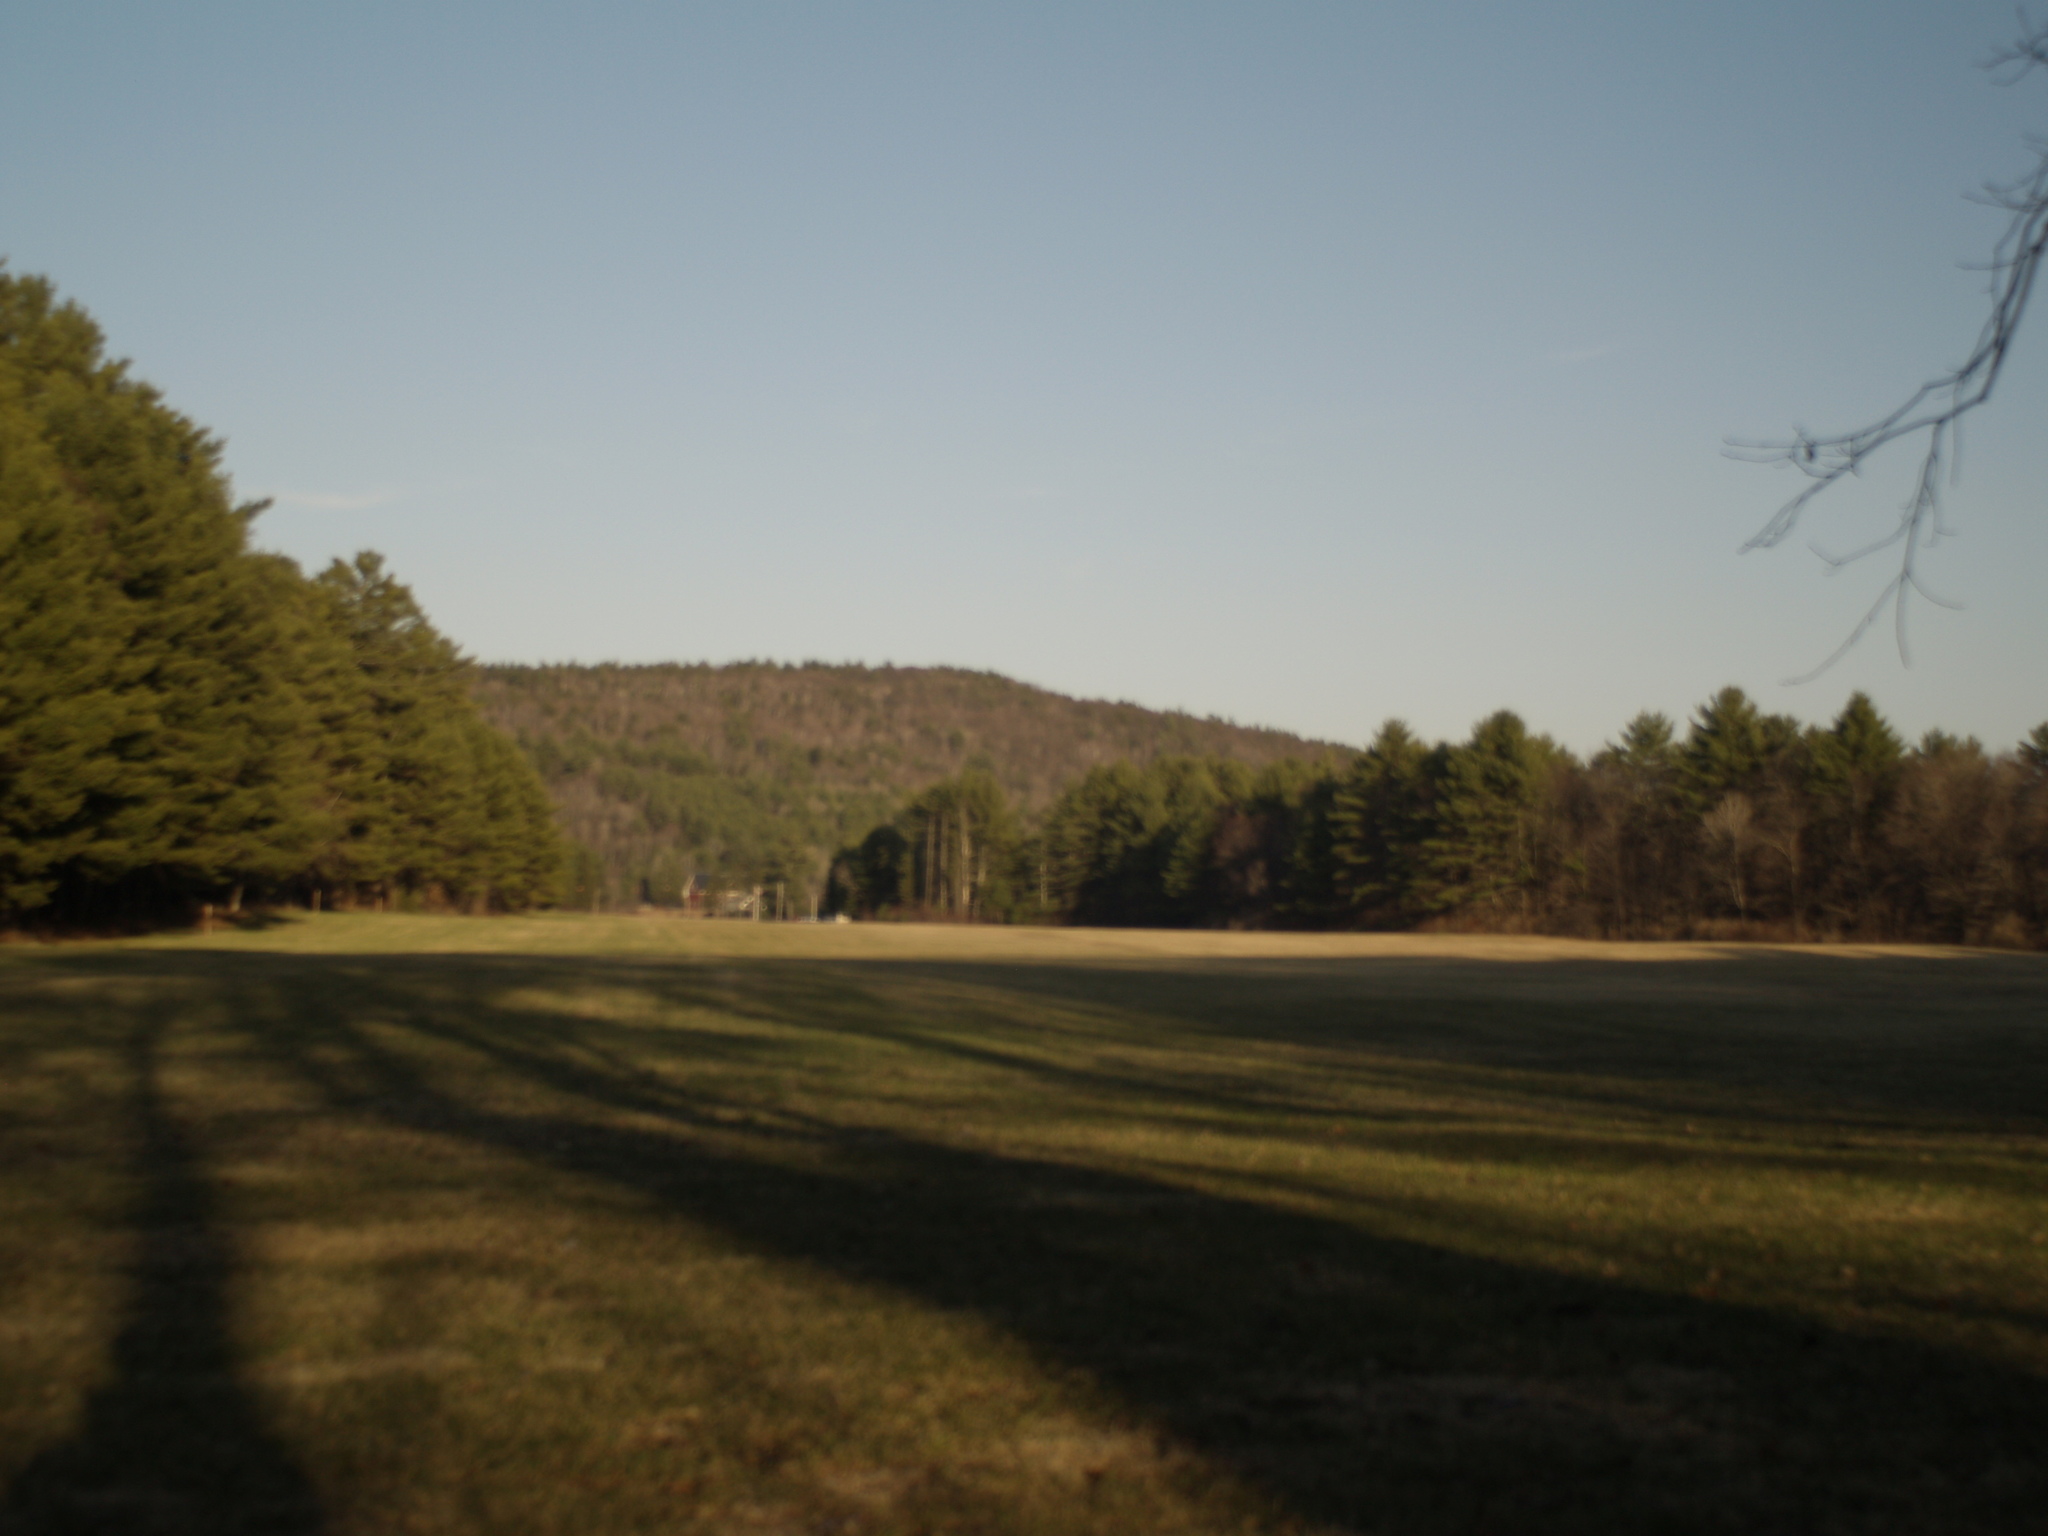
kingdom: Plantae
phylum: Tracheophyta
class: Pinopsida
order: Pinales
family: Pinaceae
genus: Pinus
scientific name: Pinus strobus
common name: Weymouth pine
